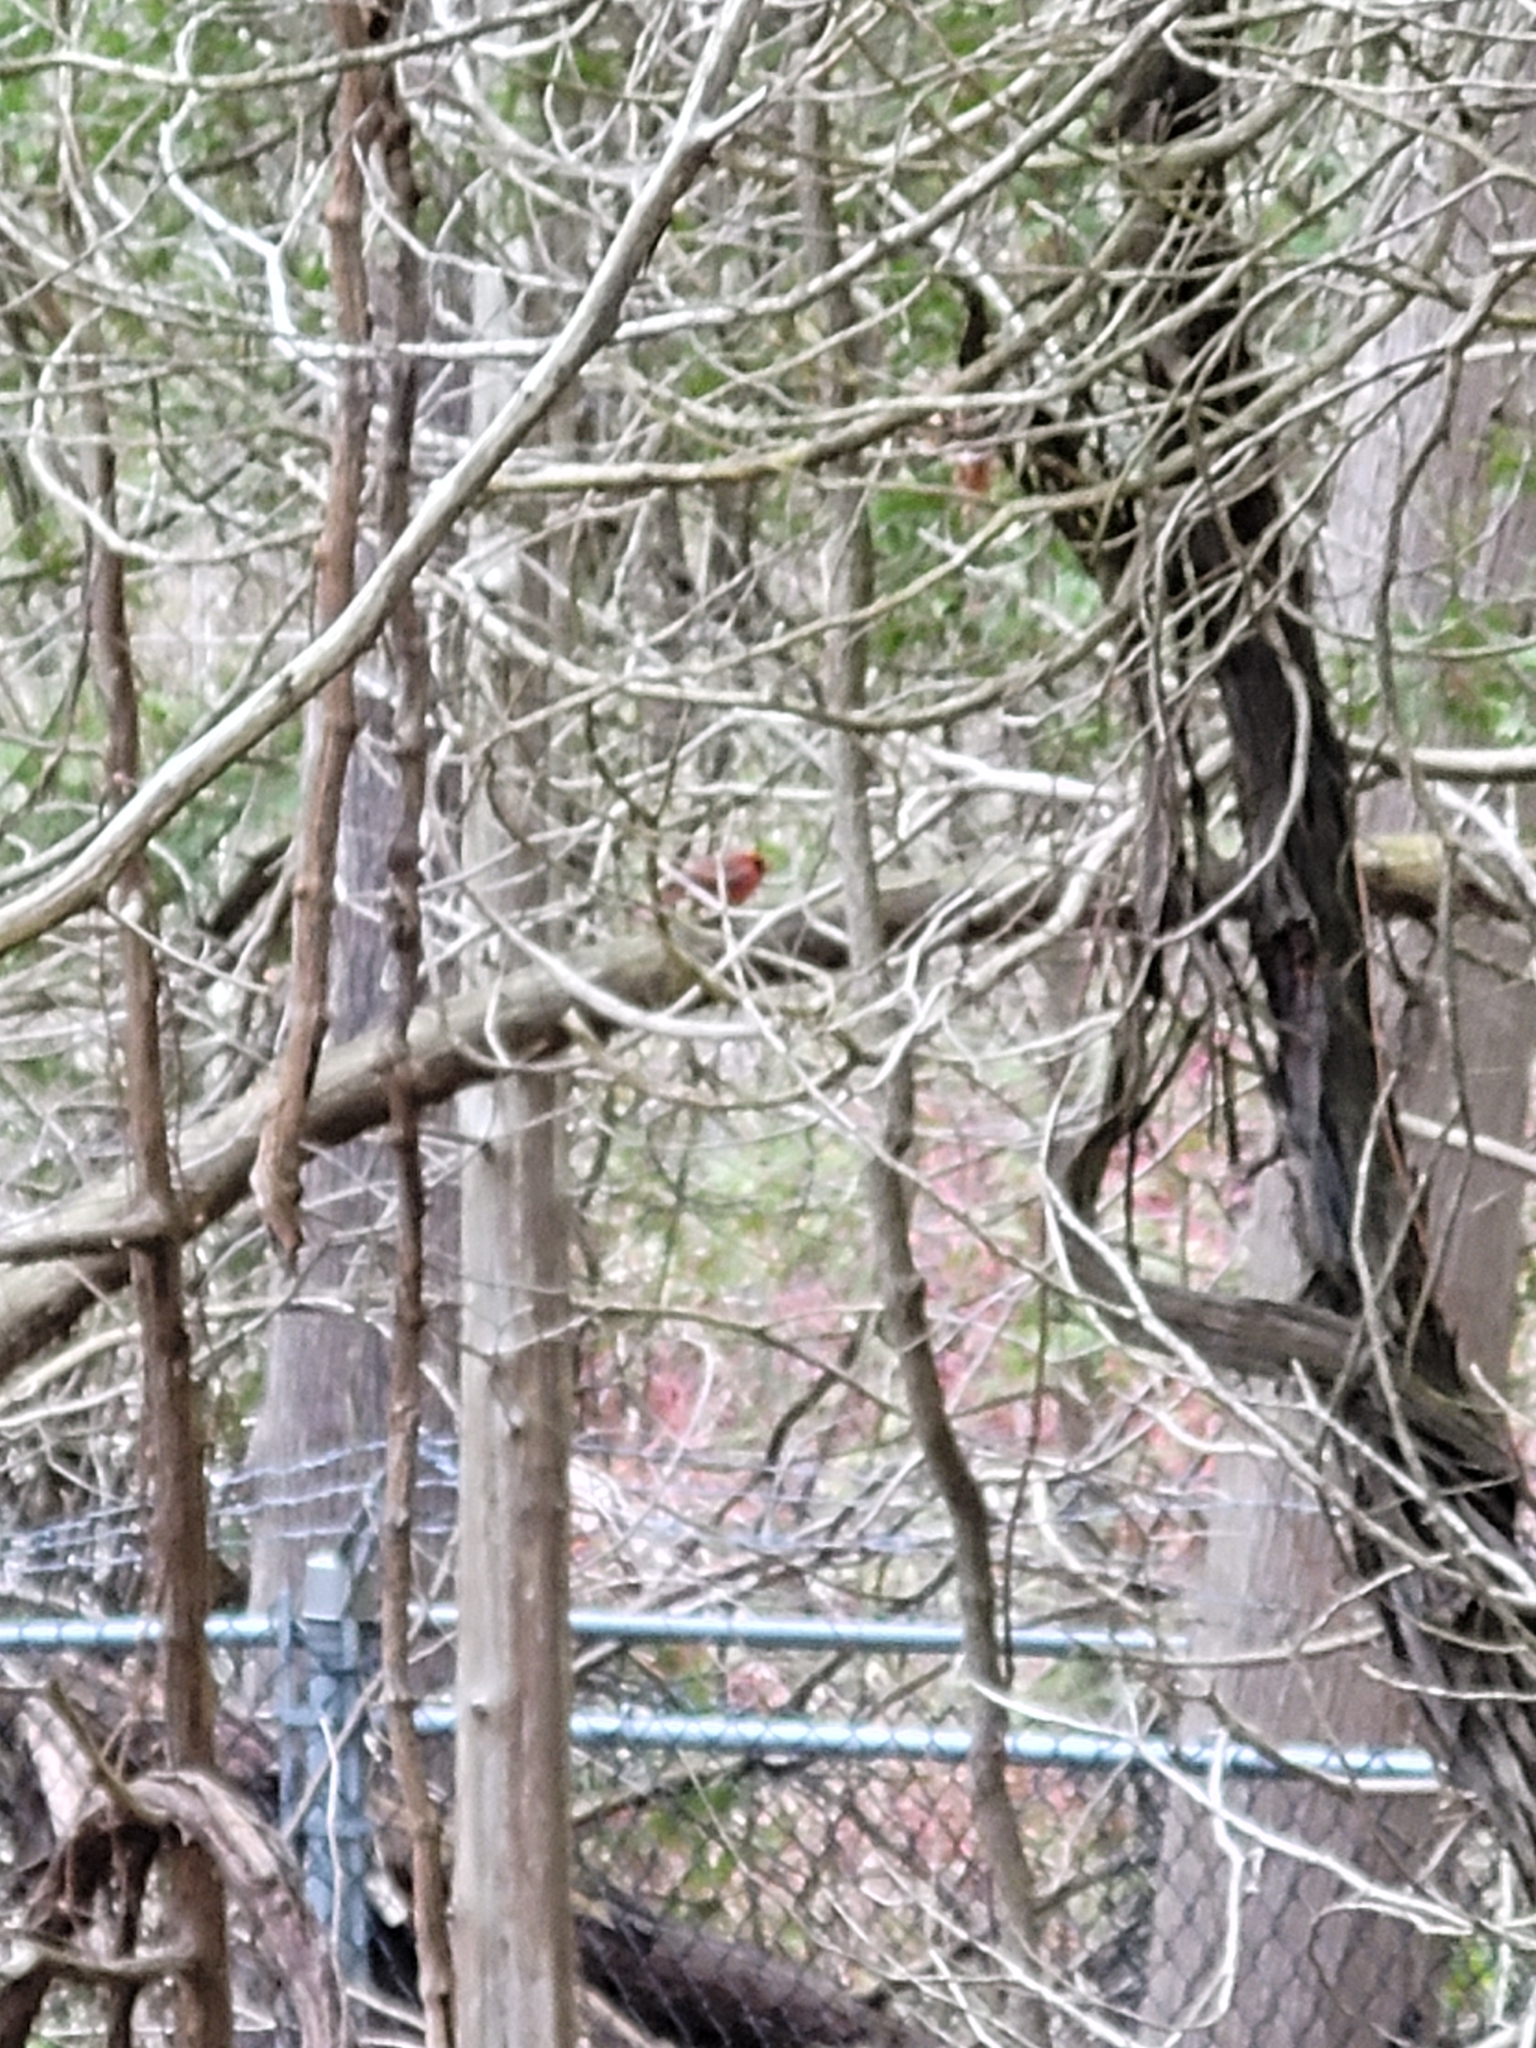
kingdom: Animalia
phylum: Chordata
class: Aves
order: Passeriformes
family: Cardinalidae
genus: Cardinalis
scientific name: Cardinalis cardinalis
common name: Northern cardinal
